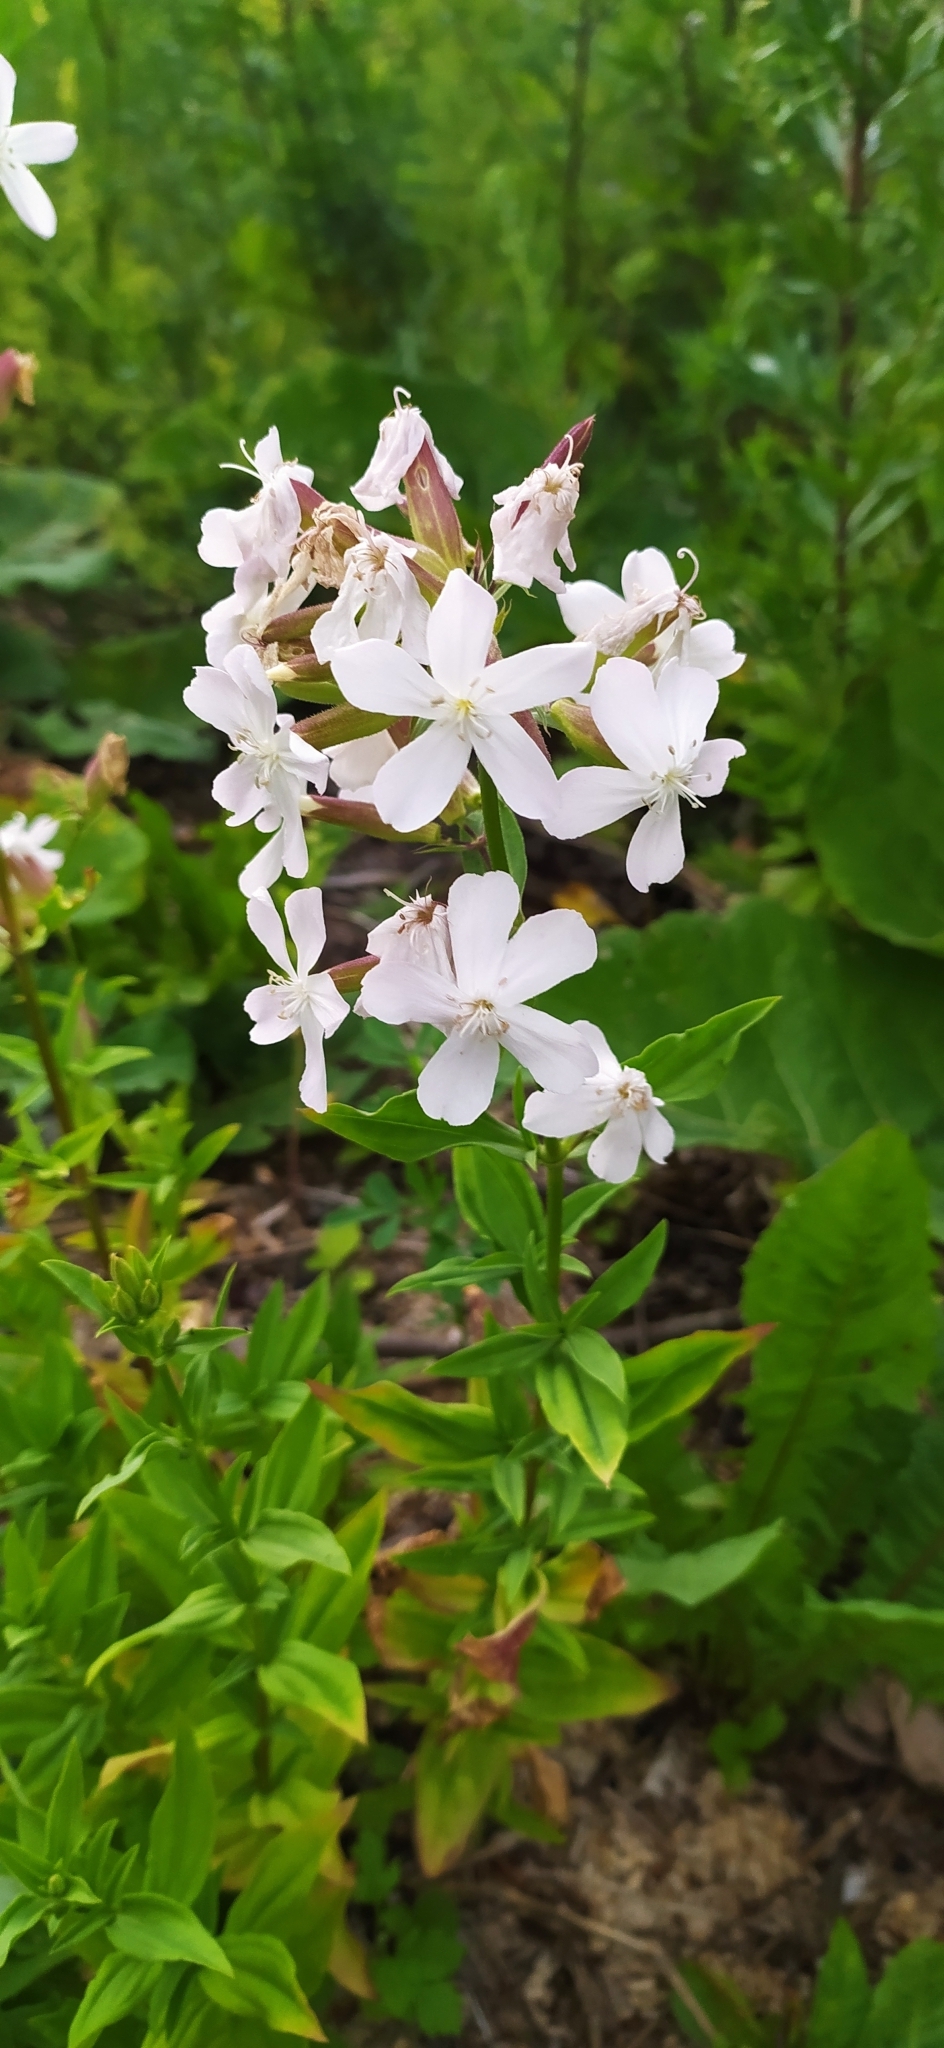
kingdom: Plantae
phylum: Tracheophyta
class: Magnoliopsida
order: Caryophyllales
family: Caryophyllaceae
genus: Saponaria
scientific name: Saponaria officinalis
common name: Soapwort
